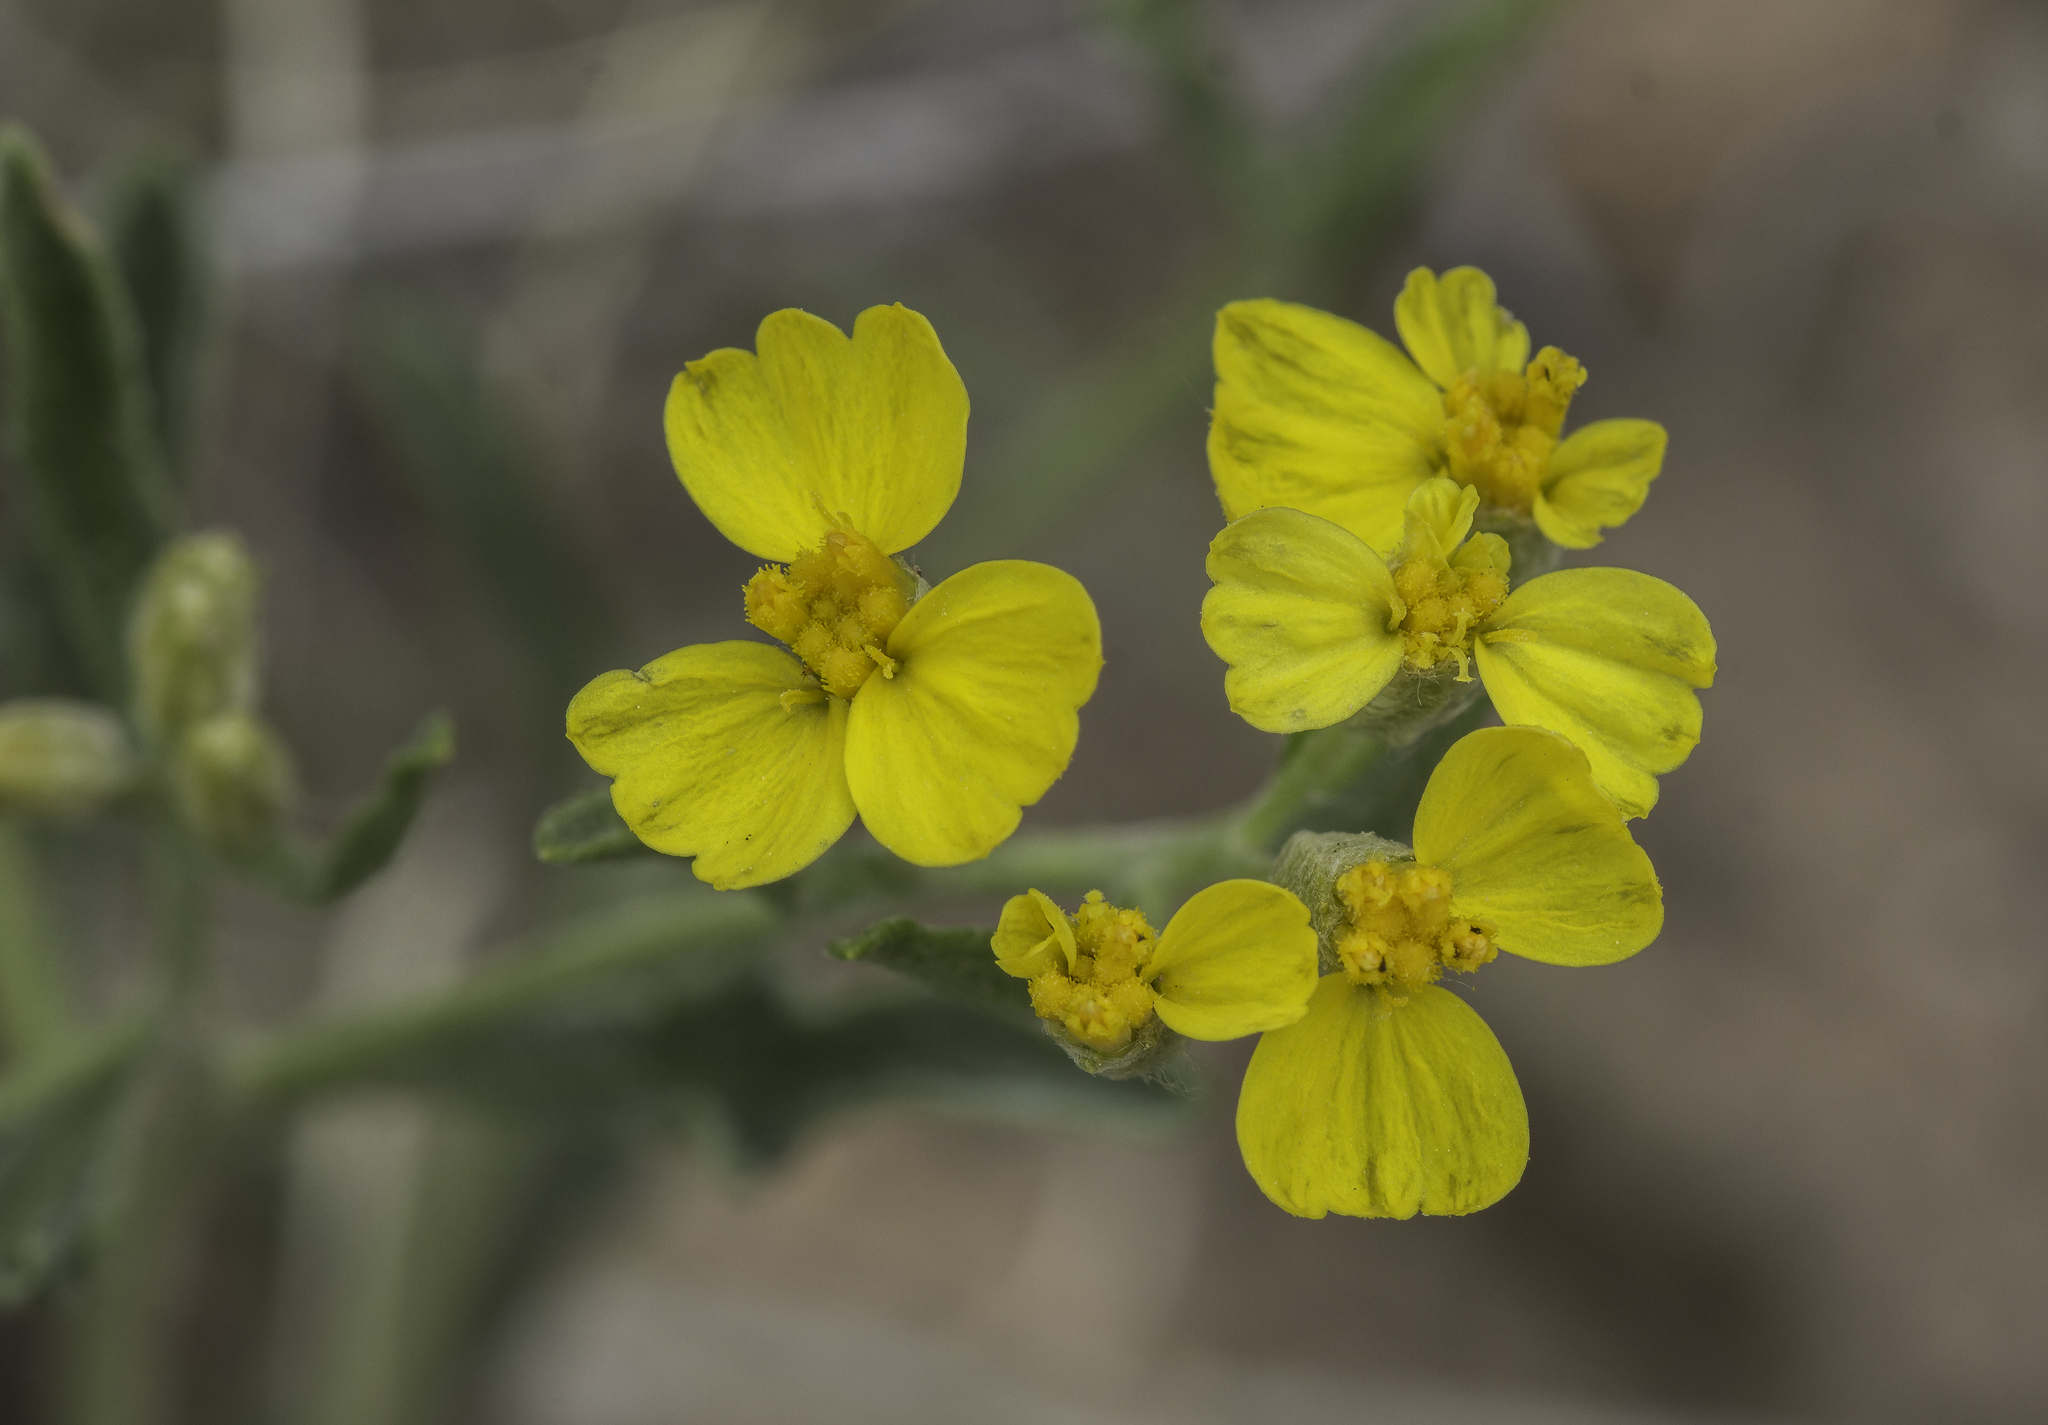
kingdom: Plantae
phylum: Tracheophyta
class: Magnoliopsida
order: Asterales
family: Asteraceae
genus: Psilostrophe
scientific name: Psilostrophe tagetina
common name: Marigold paper-flower
